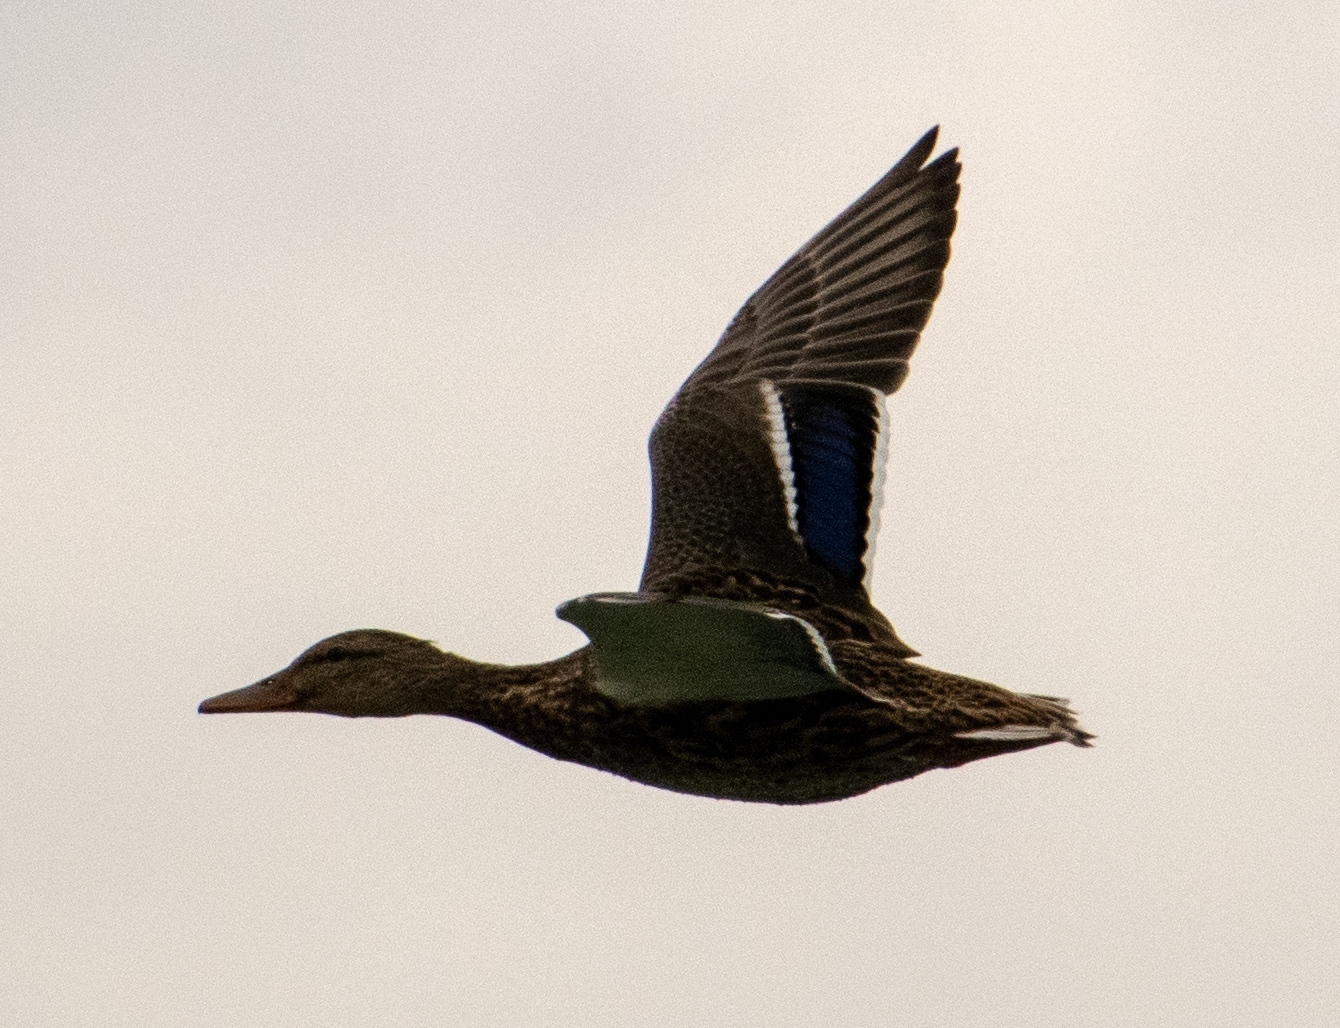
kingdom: Animalia
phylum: Chordata
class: Aves
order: Anseriformes
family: Anatidae
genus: Anas
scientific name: Anas platyrhynchos
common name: Mallard
